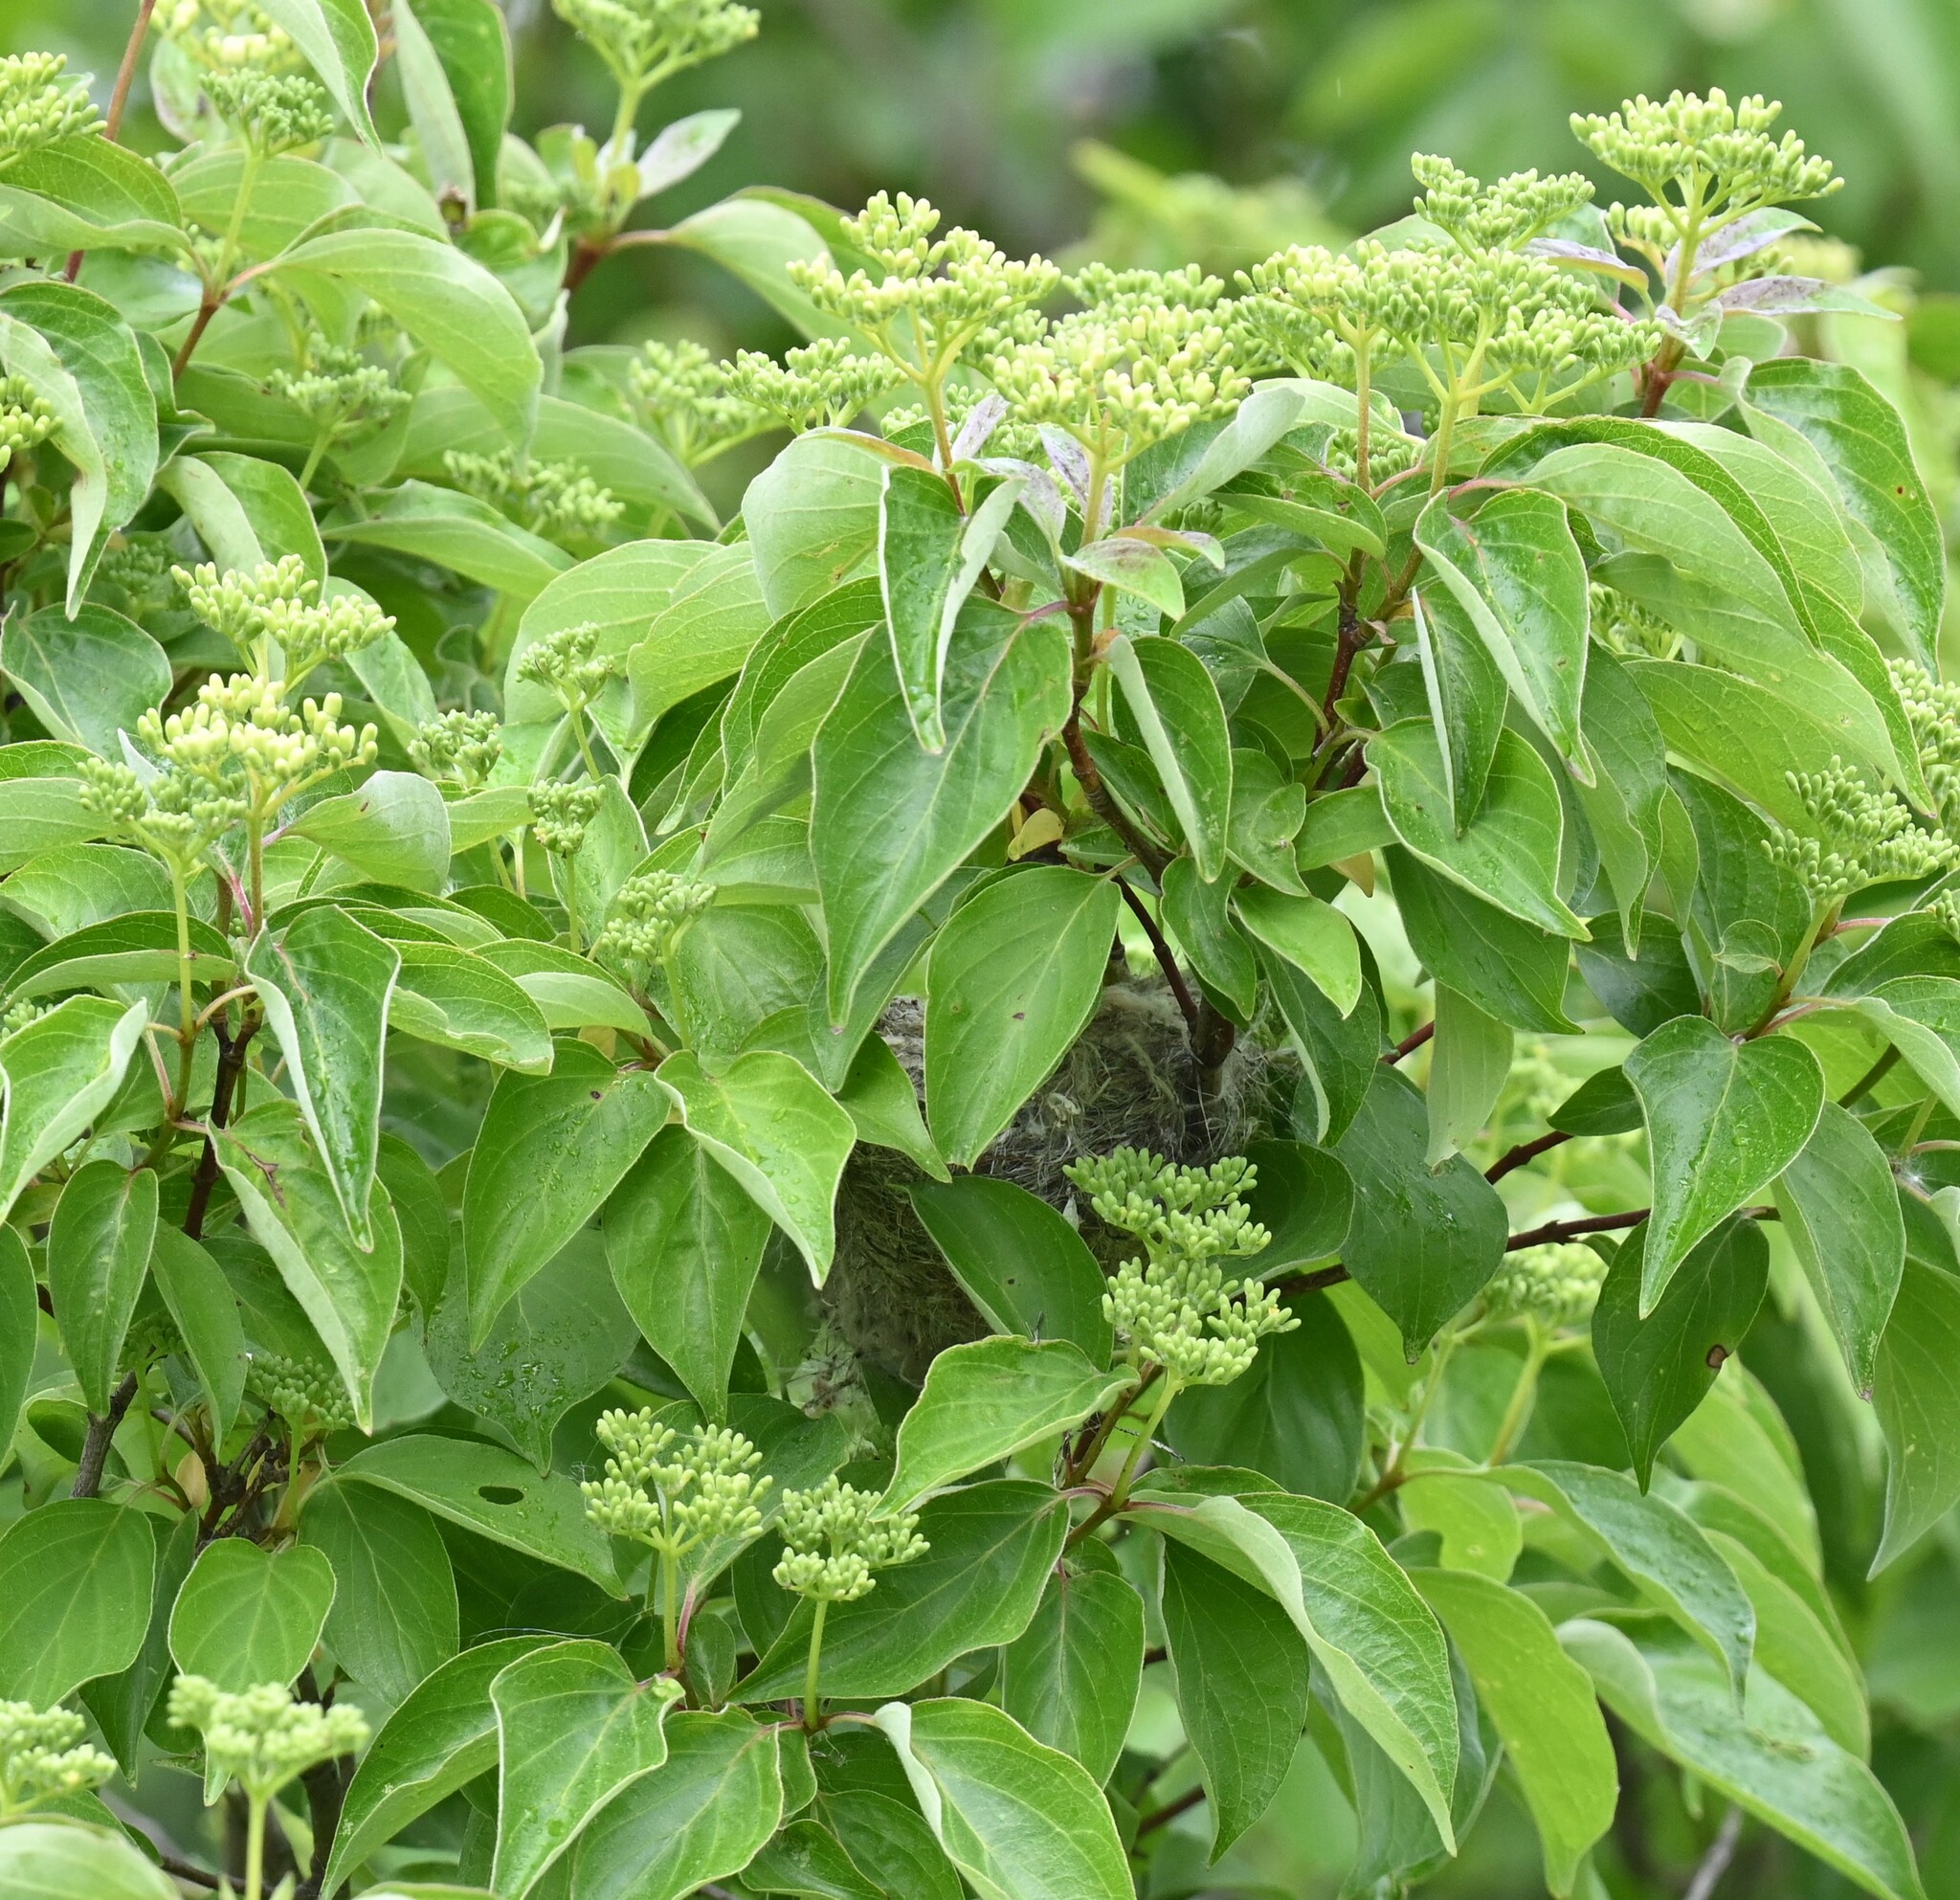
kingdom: Animalia
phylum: Chordata
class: Aves
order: Passeriformes
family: Parulidae
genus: Setophaga
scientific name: Setophaga petechia
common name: Yellow warbler
